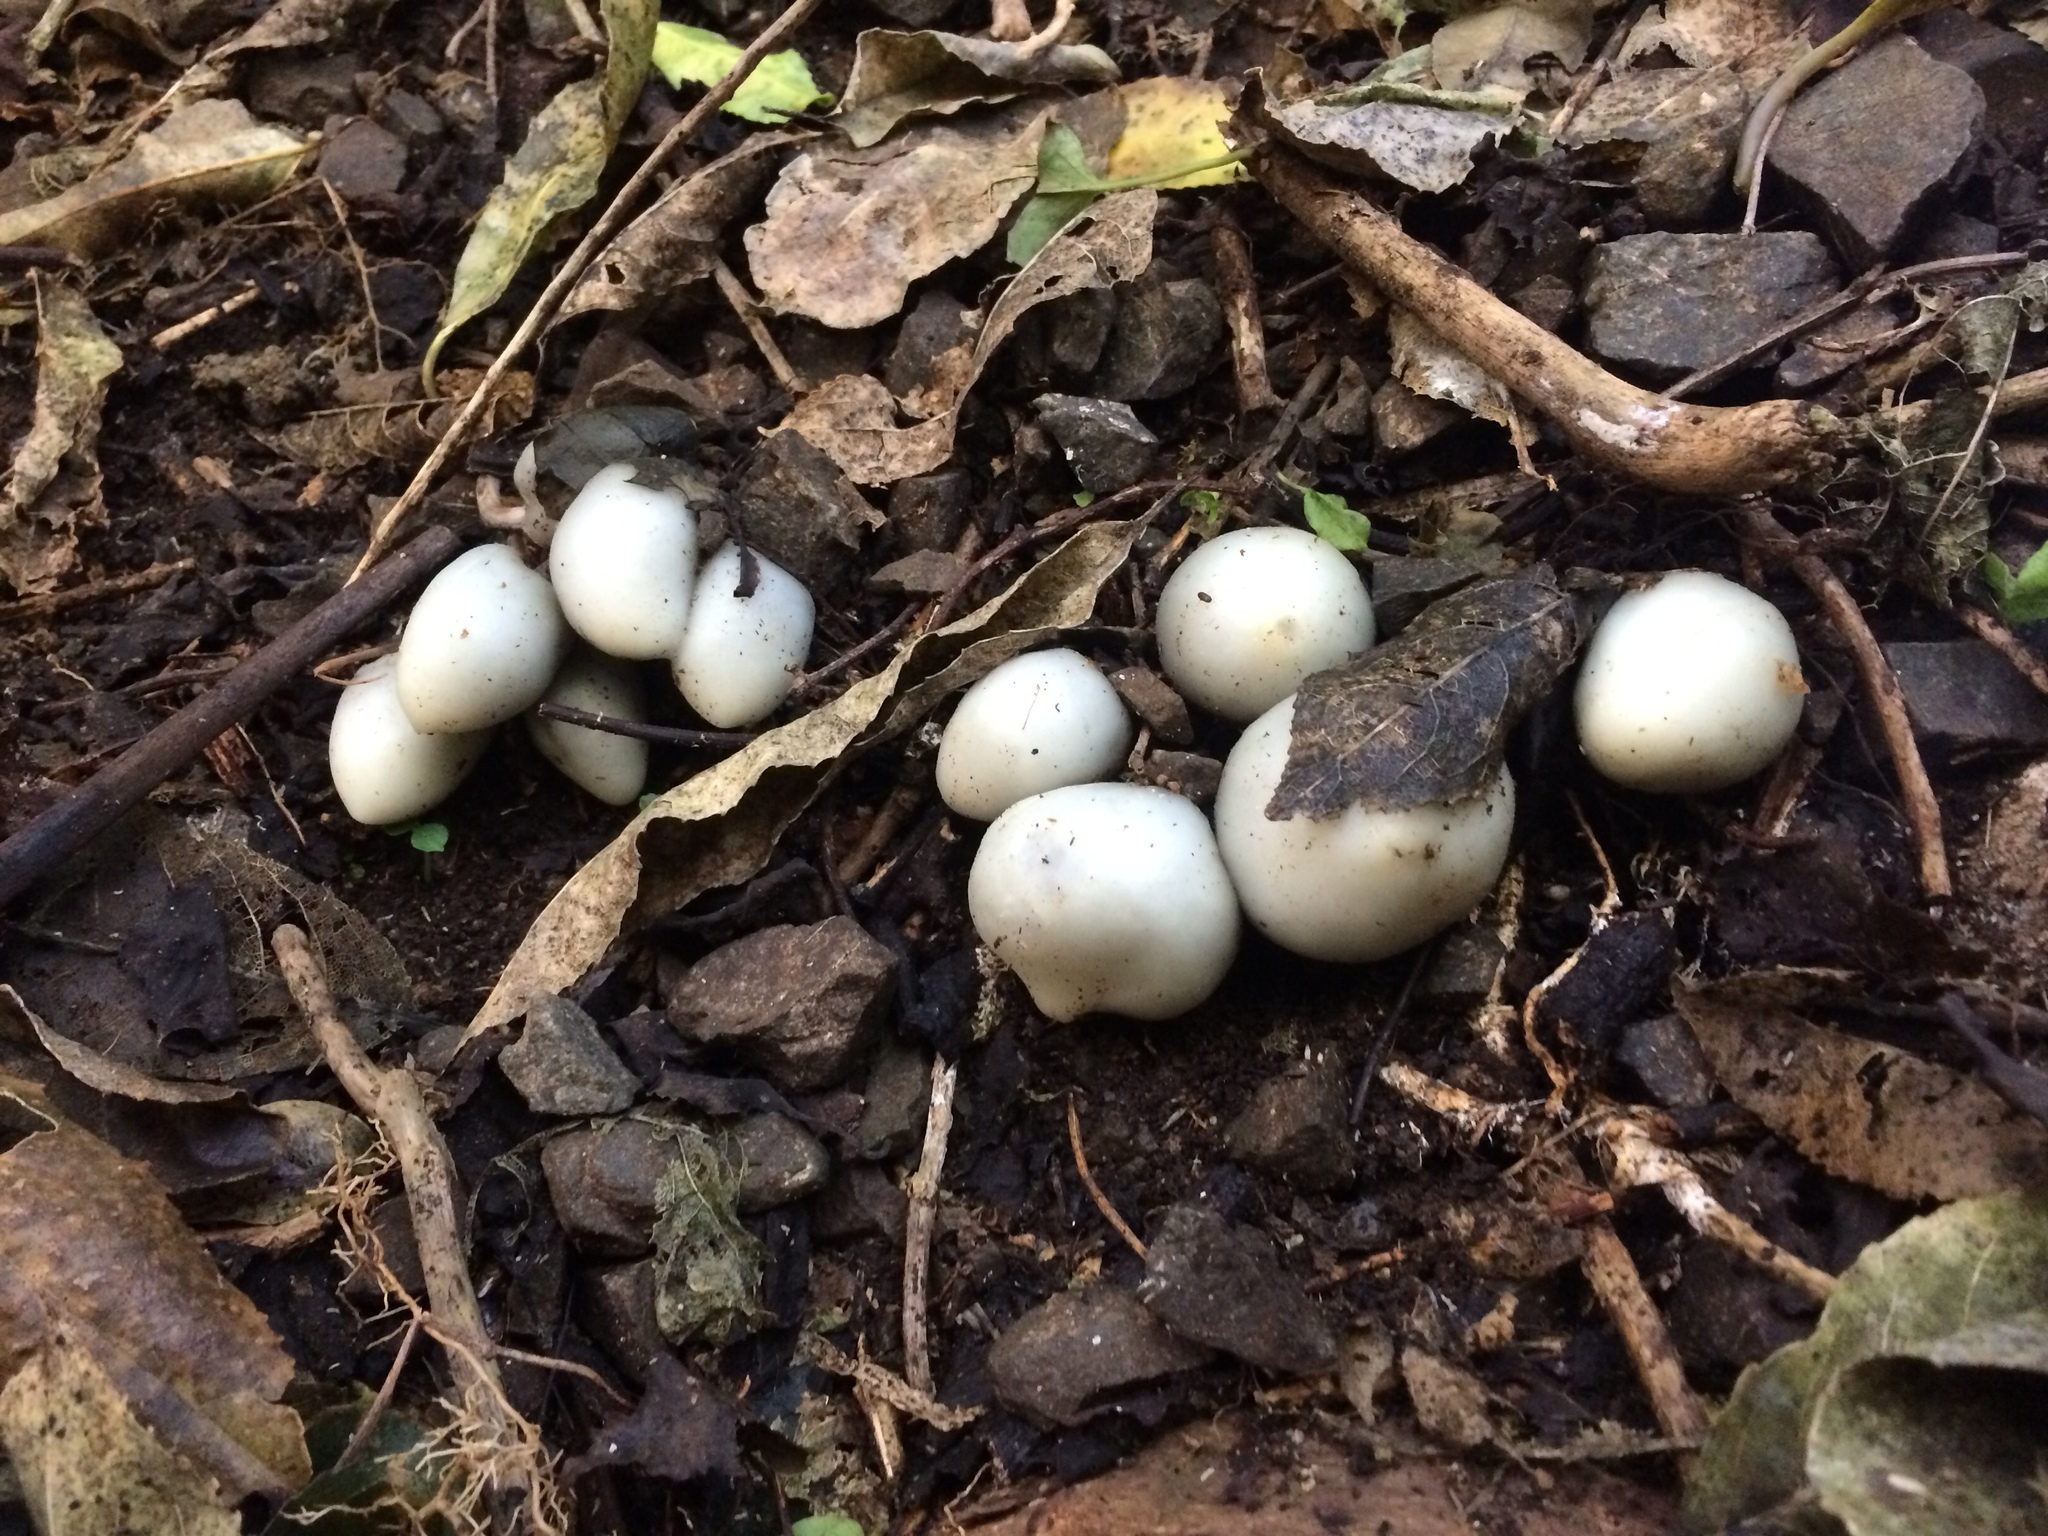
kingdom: Fungi
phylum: Basidiomycota
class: Agaricomycetes
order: Agaricales
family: Hymenogastraceae
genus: Psilocybe
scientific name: Psilocybe weraroa
